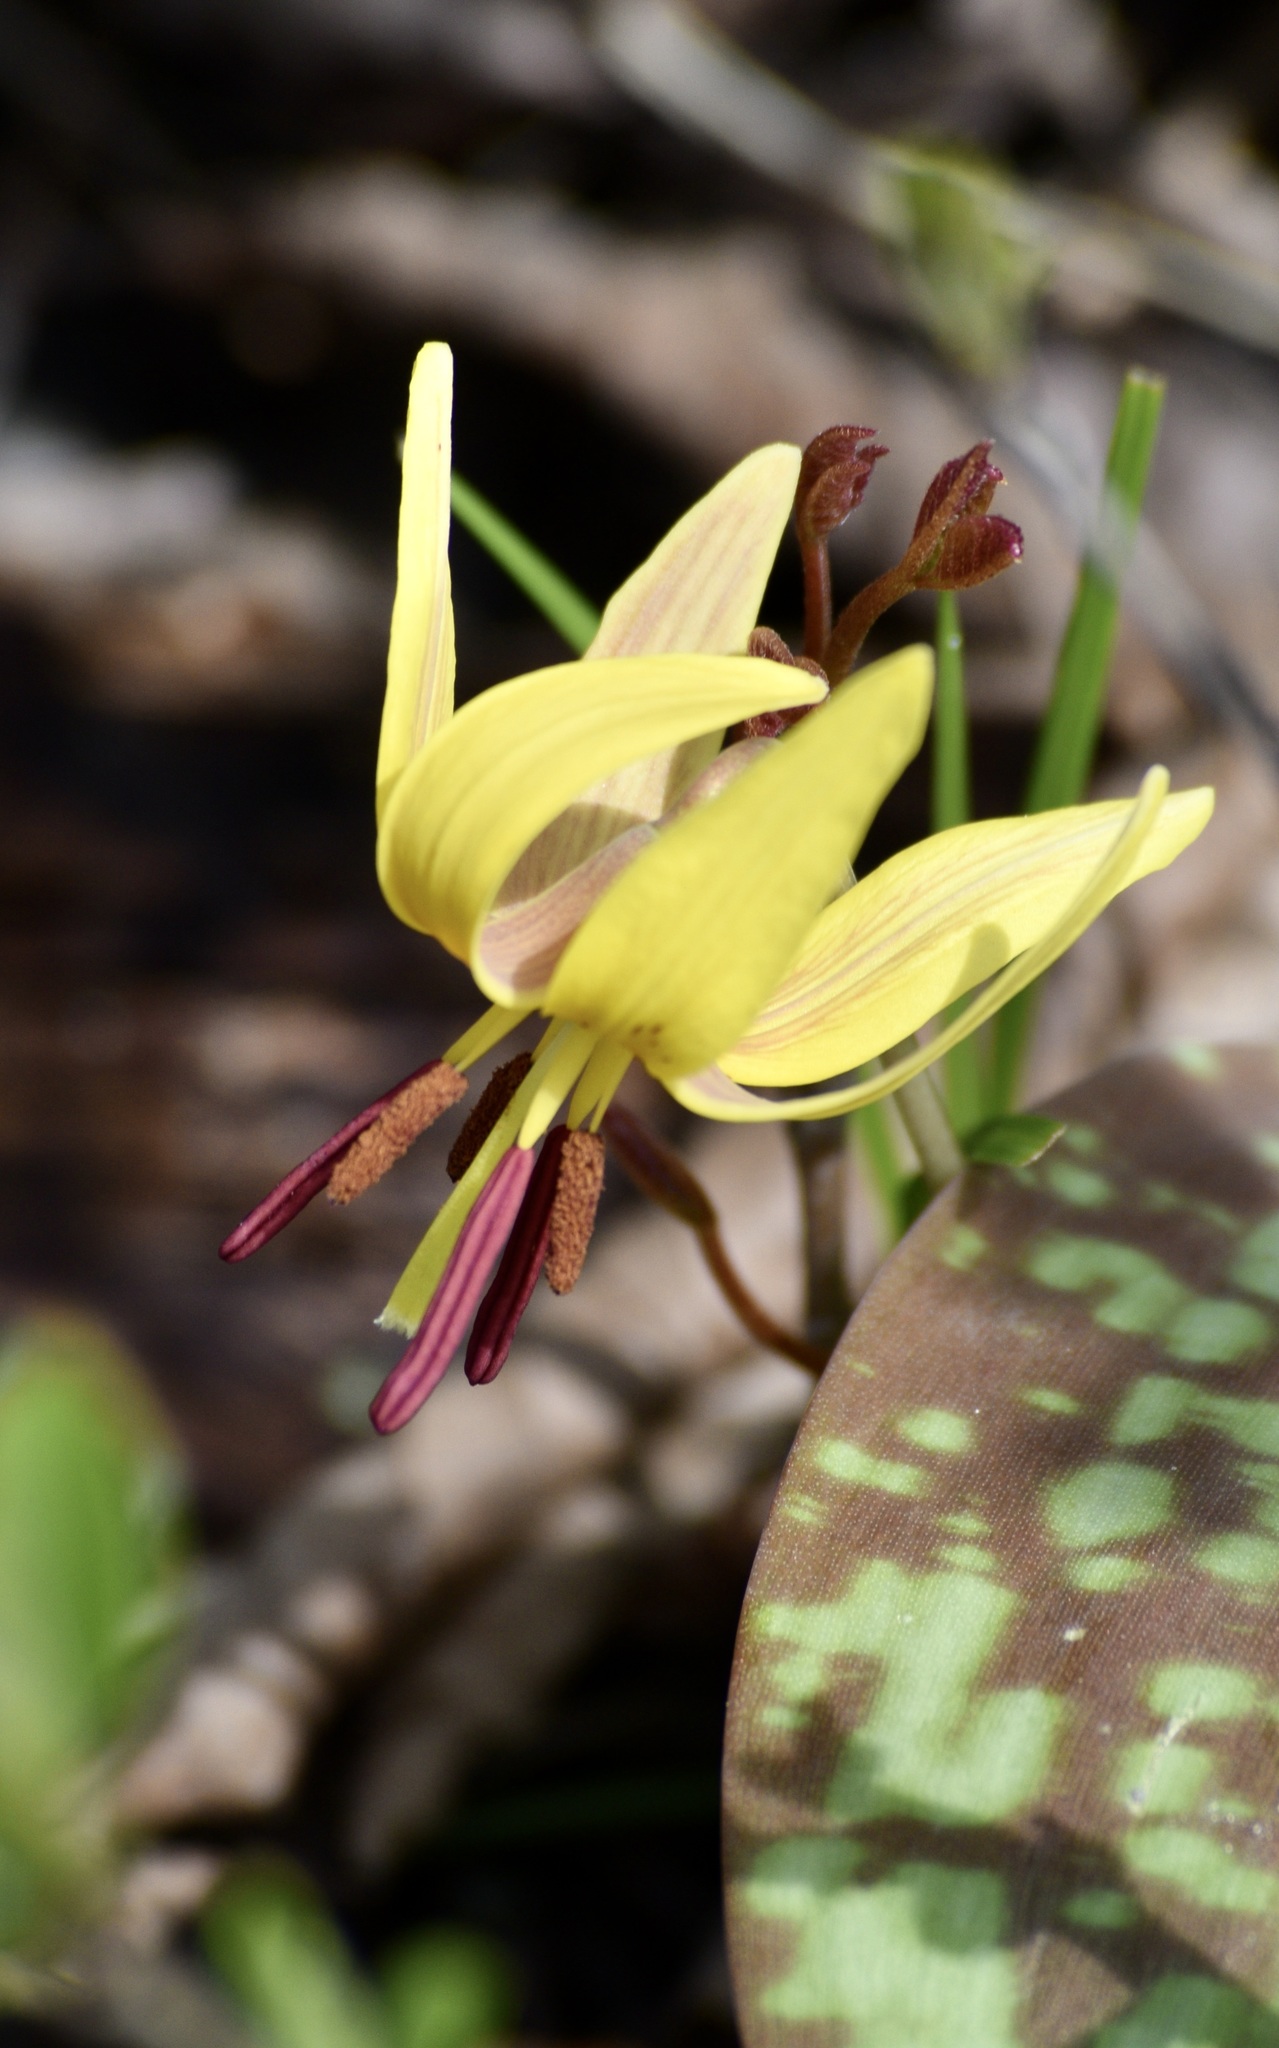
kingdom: Plantae
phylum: Tracheophyta
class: Liliopsida
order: Liliales
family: Liliaceae
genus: Erythronium
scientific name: Erythronium americanum
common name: Yellow adder's-tongue
